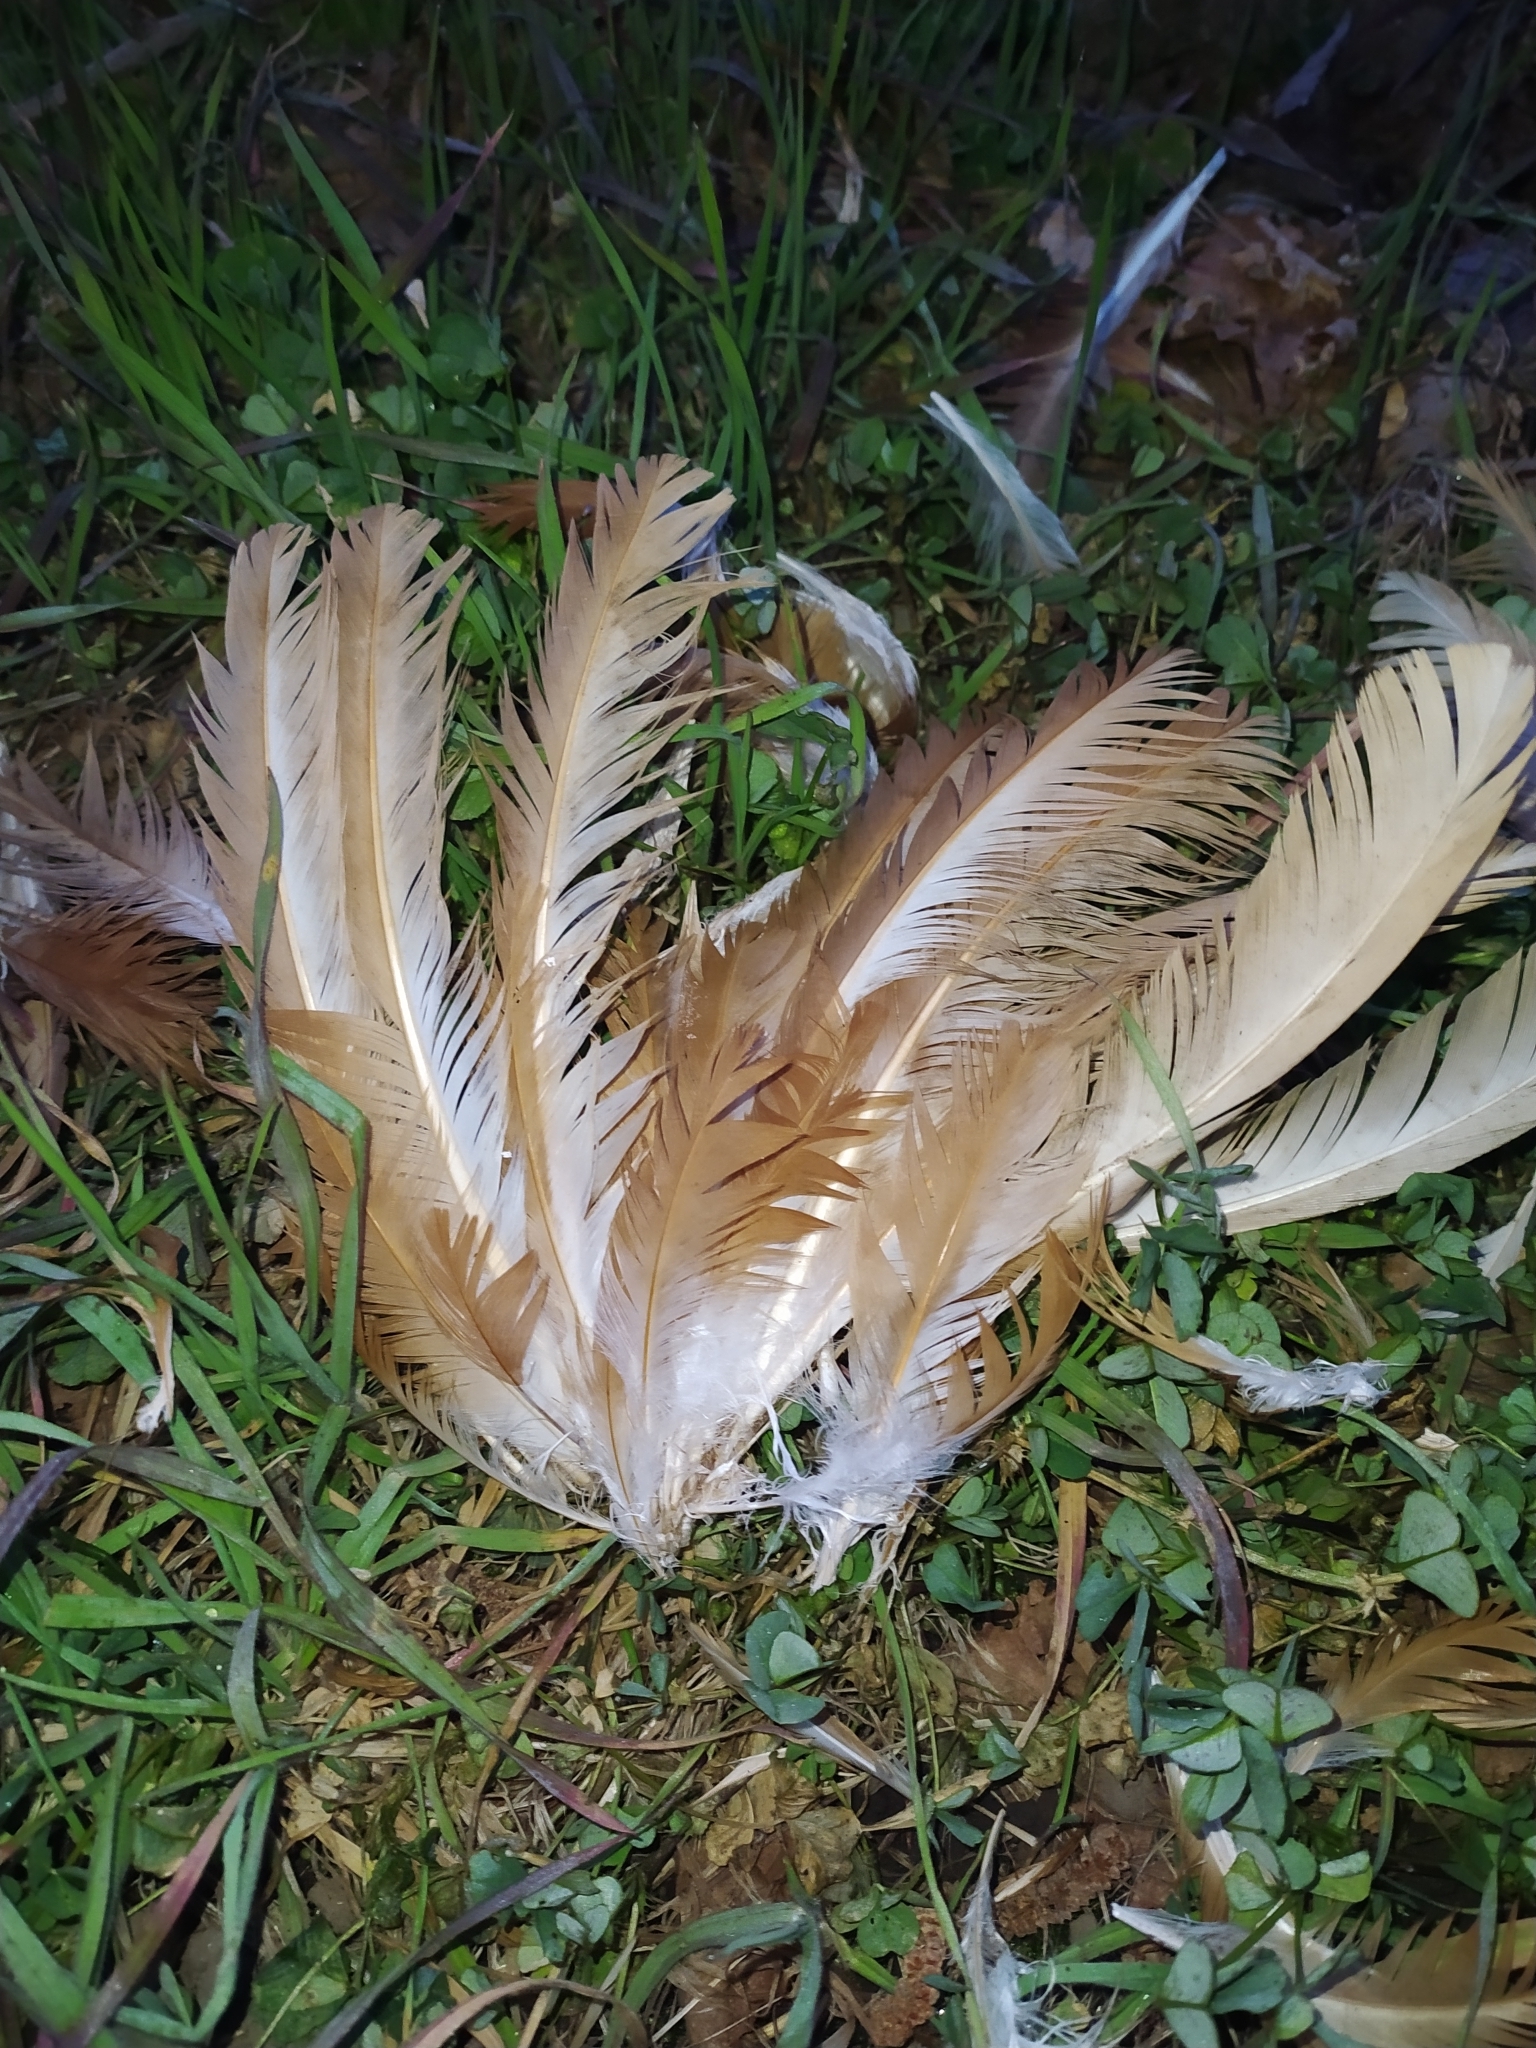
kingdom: Animalia
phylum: Chordata
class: Aves
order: Galliformes
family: Phasianidae
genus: Gallus
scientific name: Gallus gallus
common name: Red junglefowl
